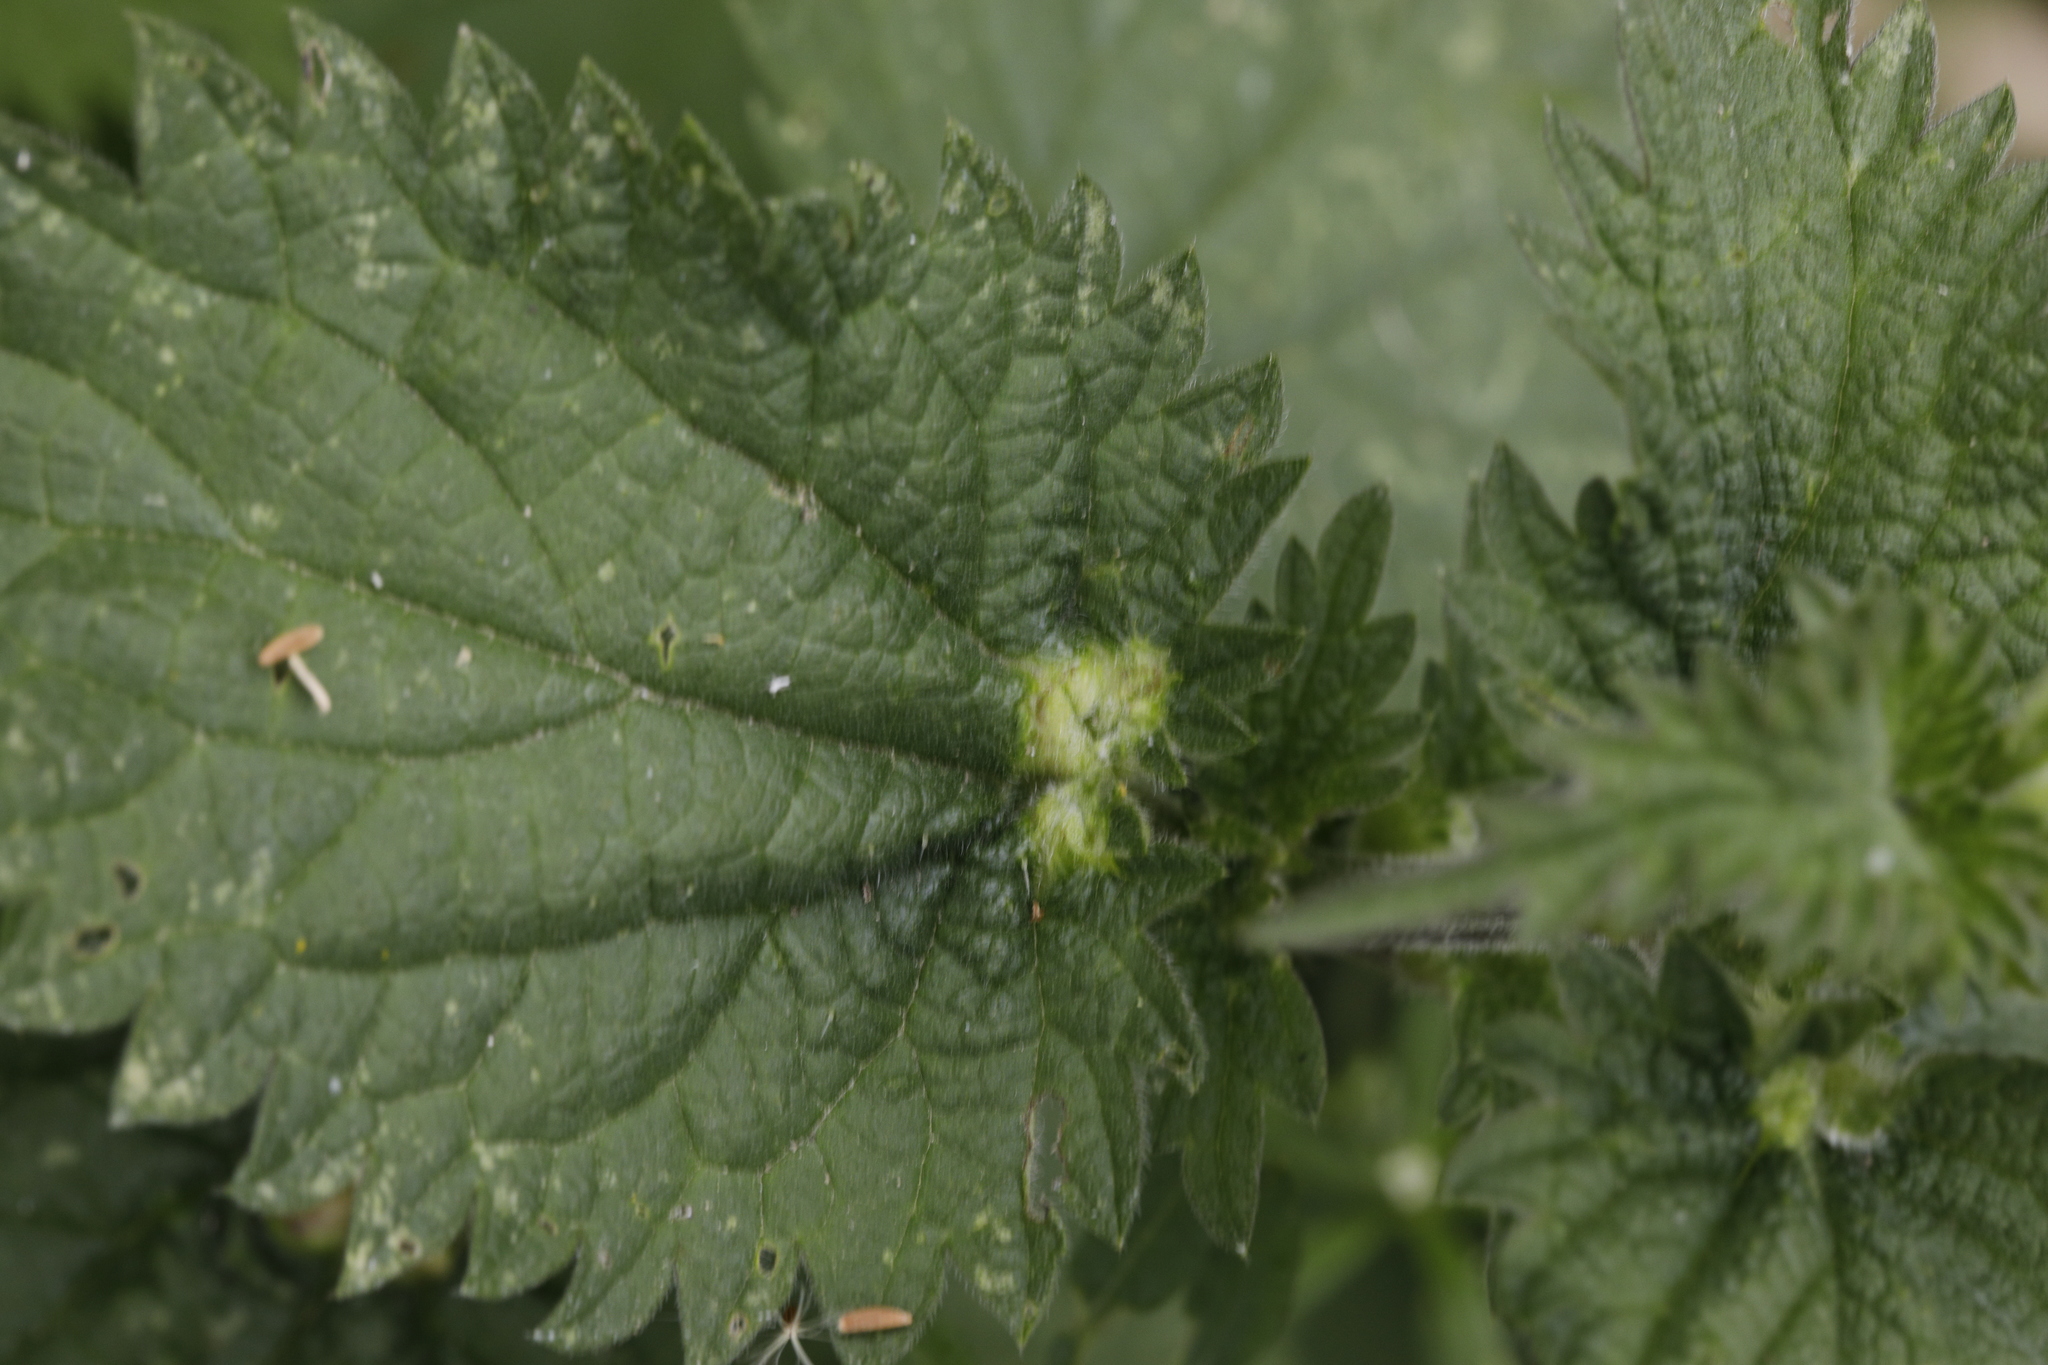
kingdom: Animalia
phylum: Arthropoda
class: Insecta
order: Diptera
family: Cecidomyiidae
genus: Dasineura
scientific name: Dasineura urticae
